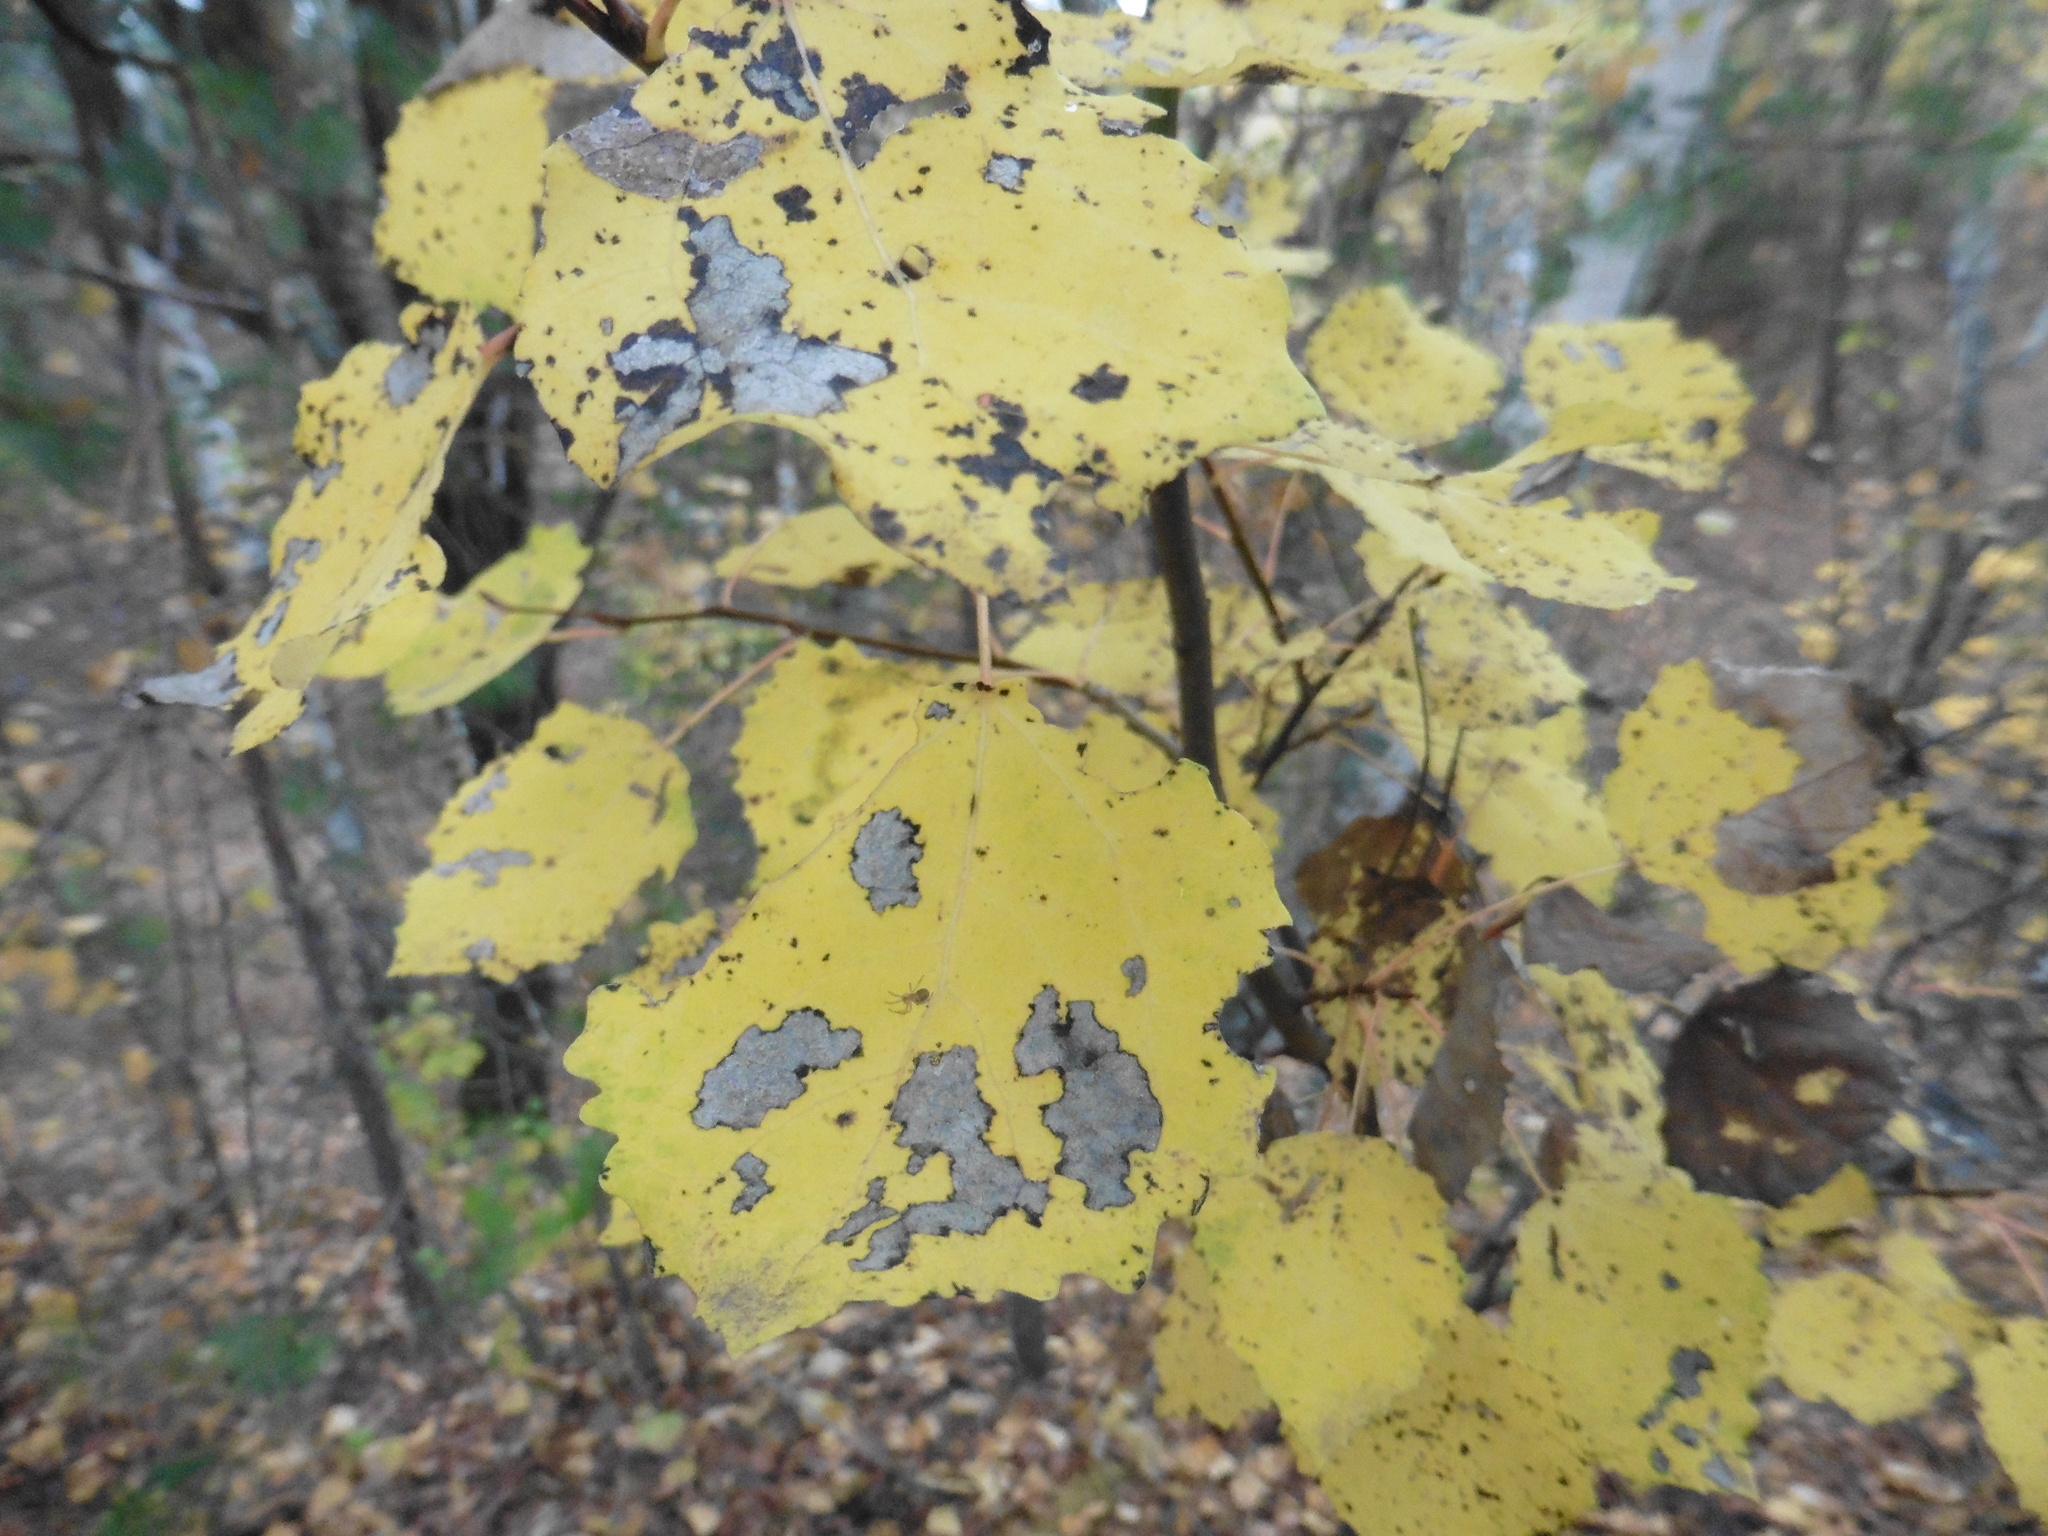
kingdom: Plantae
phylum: Tracheophyta
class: Magnoliopsida
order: Malpighiales
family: Salicaceae
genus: Populus
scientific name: Populus tremula
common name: European aspen
